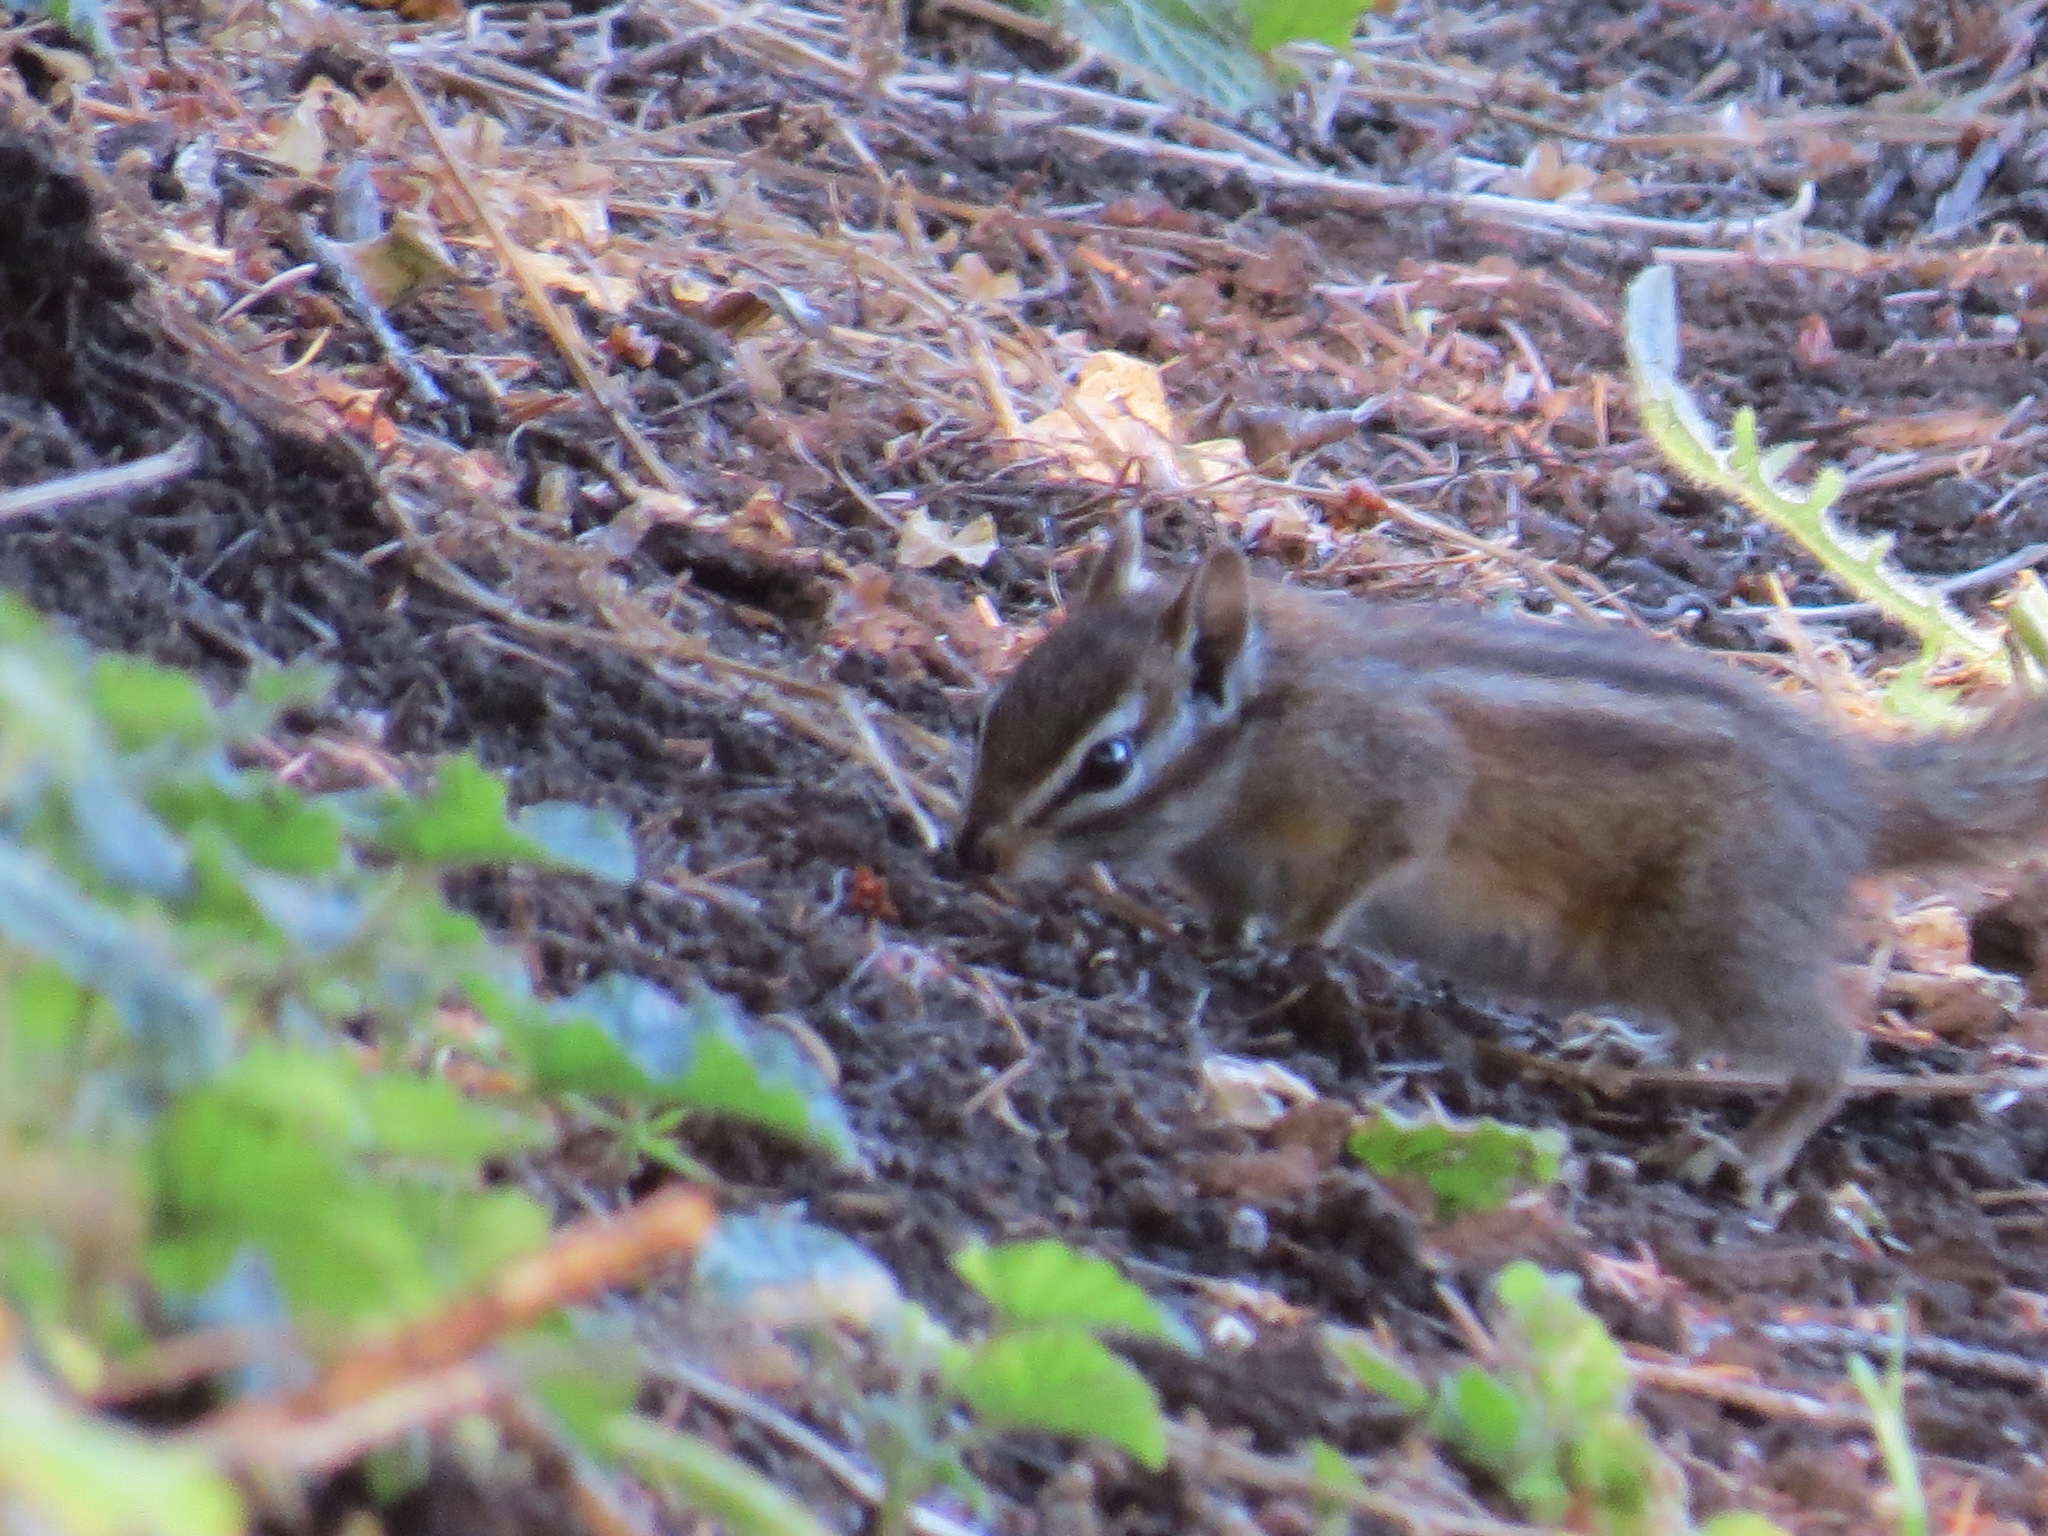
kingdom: Animalia
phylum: Chordata
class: Mammalia
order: Rodentia
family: Sciuridae
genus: Tamias
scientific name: Tamias merriami
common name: Merriam's chipmunk
